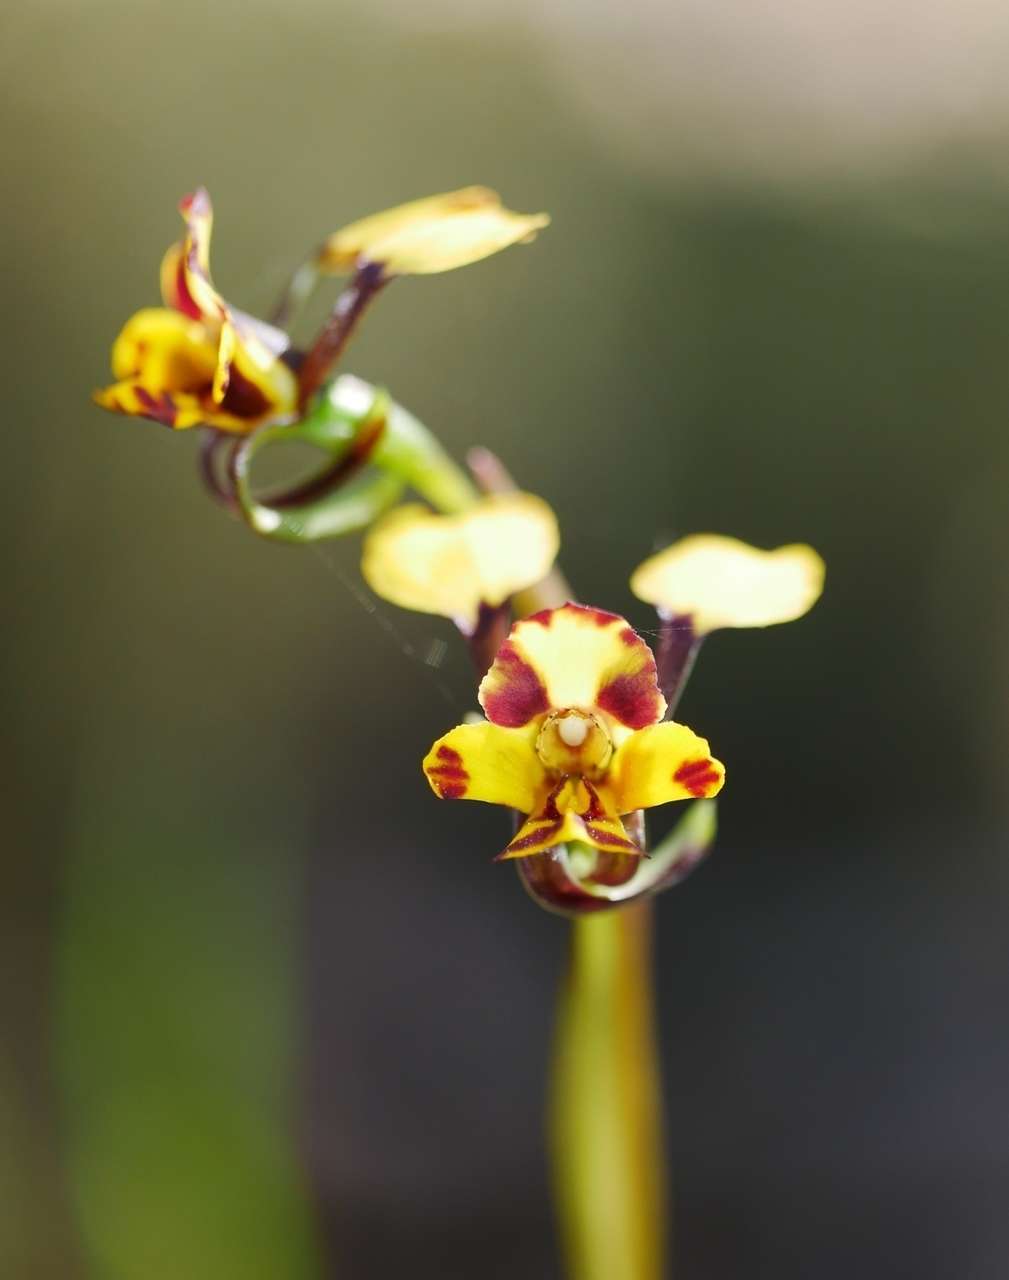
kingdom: Plantae
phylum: Tracheophyta
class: Liliopsida
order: Asparagales
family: Orchidaceae
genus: Diuris
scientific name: Diuris pardina
